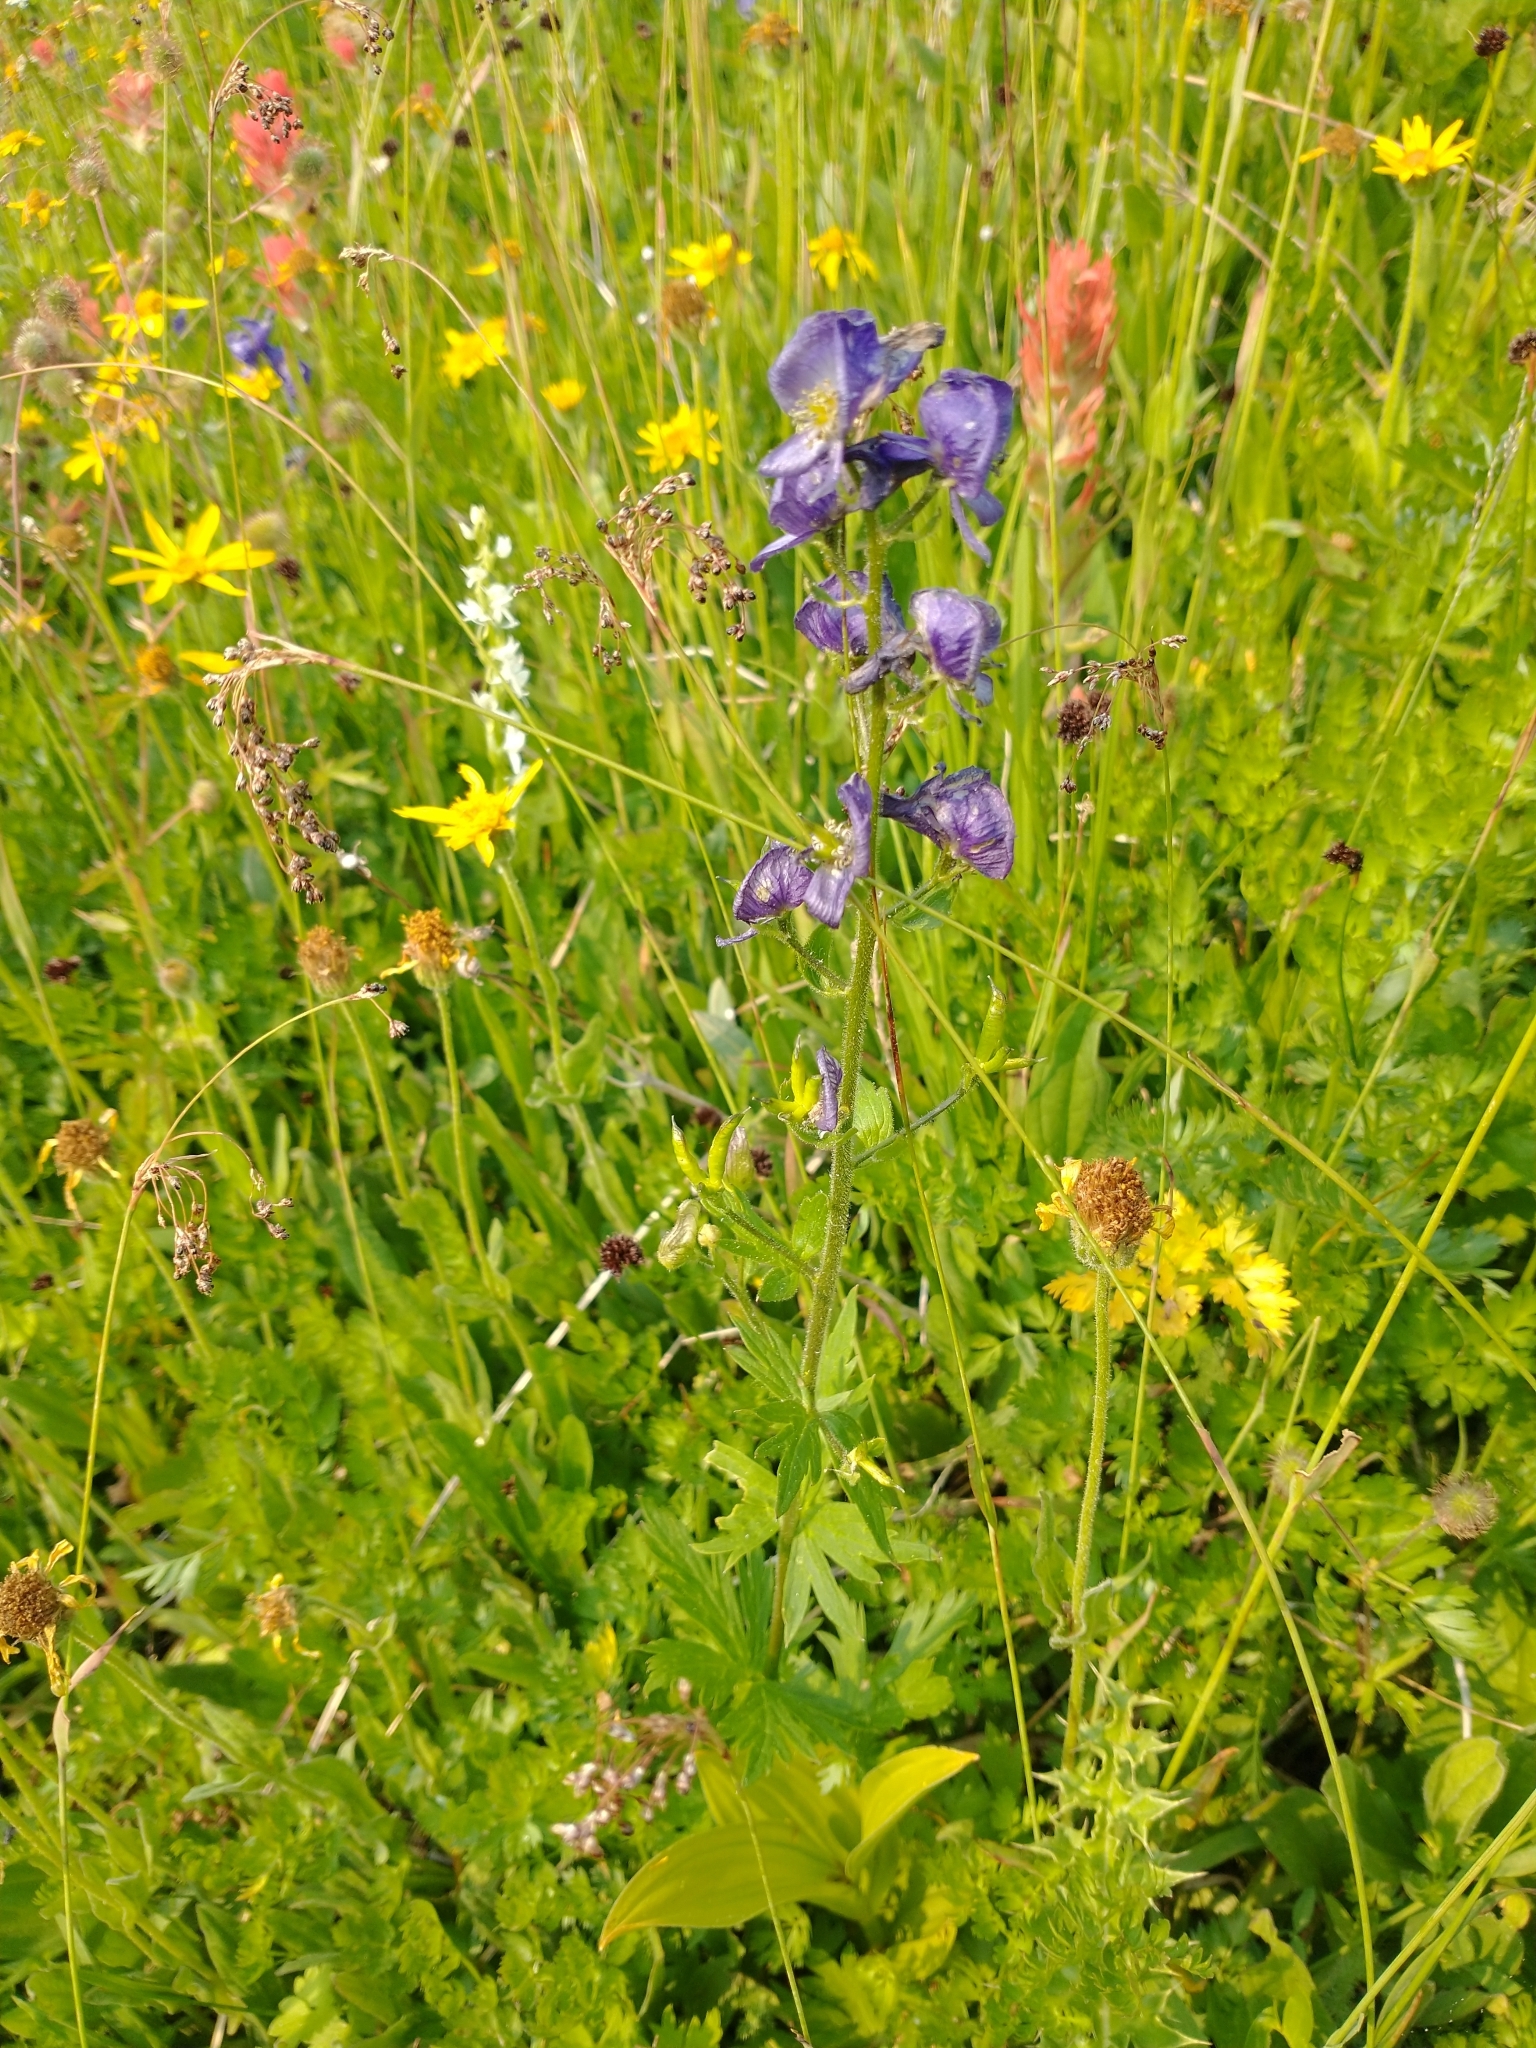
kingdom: Plantae
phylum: Tracheophyta
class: Magnoliopsida
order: Ranunculales
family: Ranunculaceae
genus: Aconitum
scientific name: Aconitum columbianum
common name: Columbia aconite
